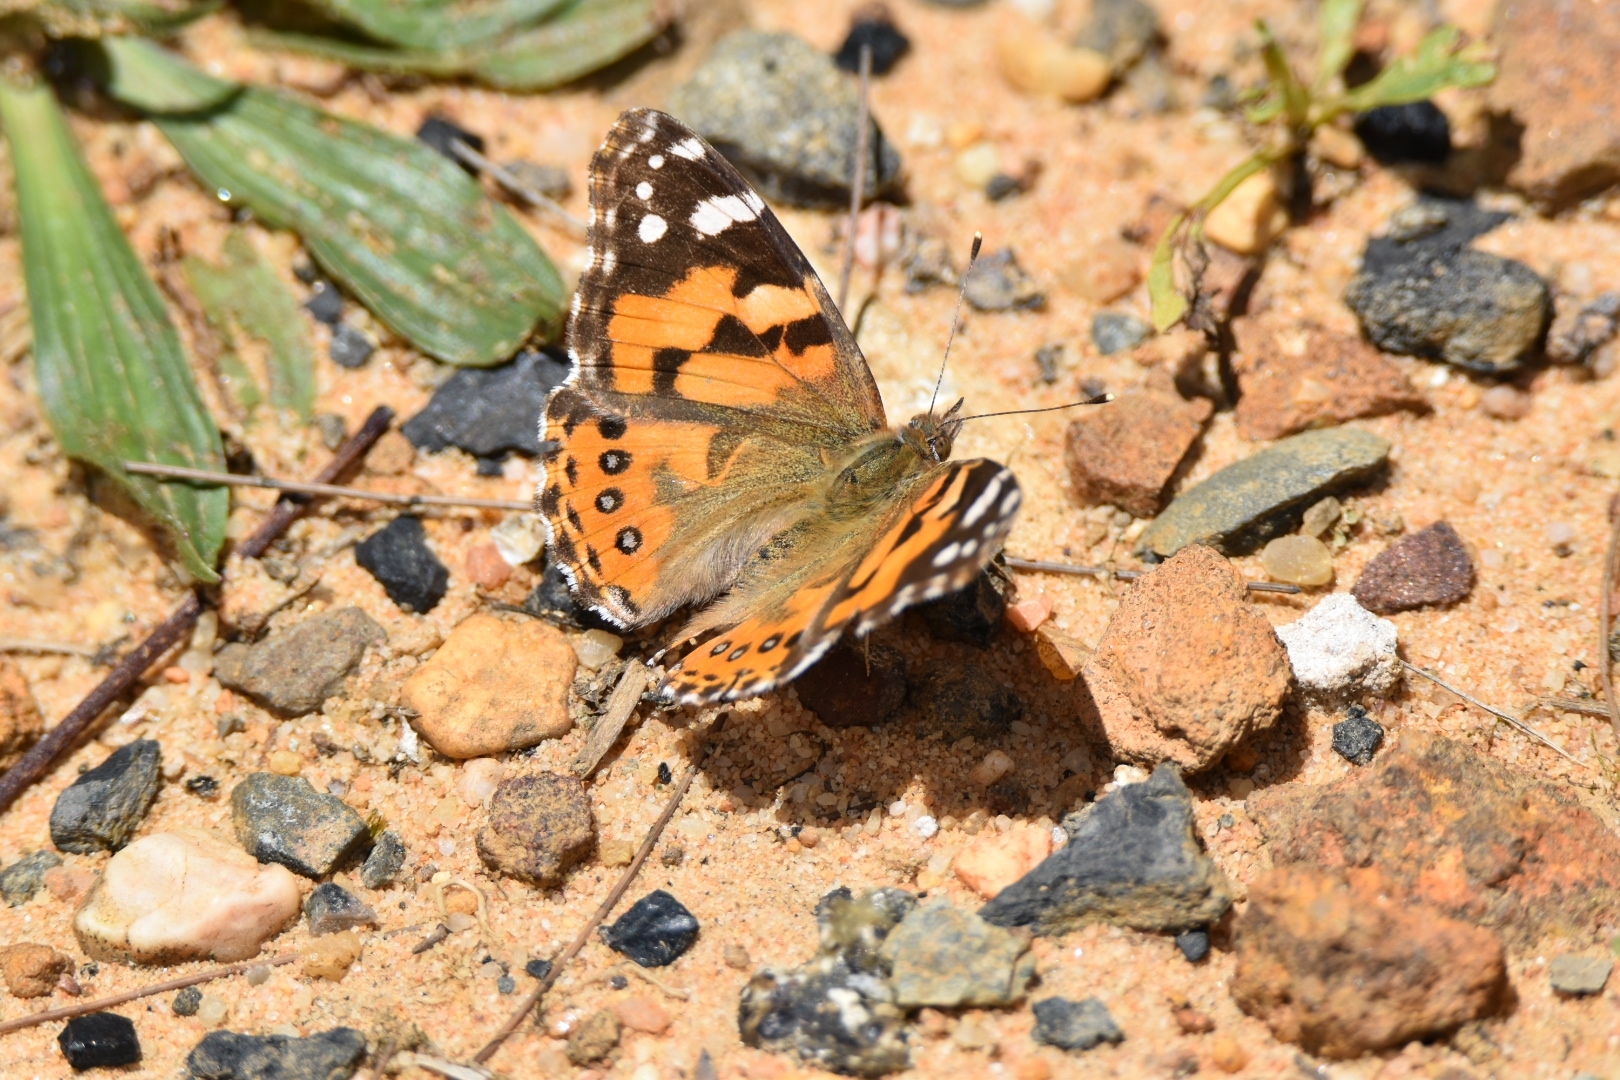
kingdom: Animalia
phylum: Arthropoda
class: Insecta
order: Lepidoptera
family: Nymphalidae
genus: Vanessa
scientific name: Vanessa kershawi
